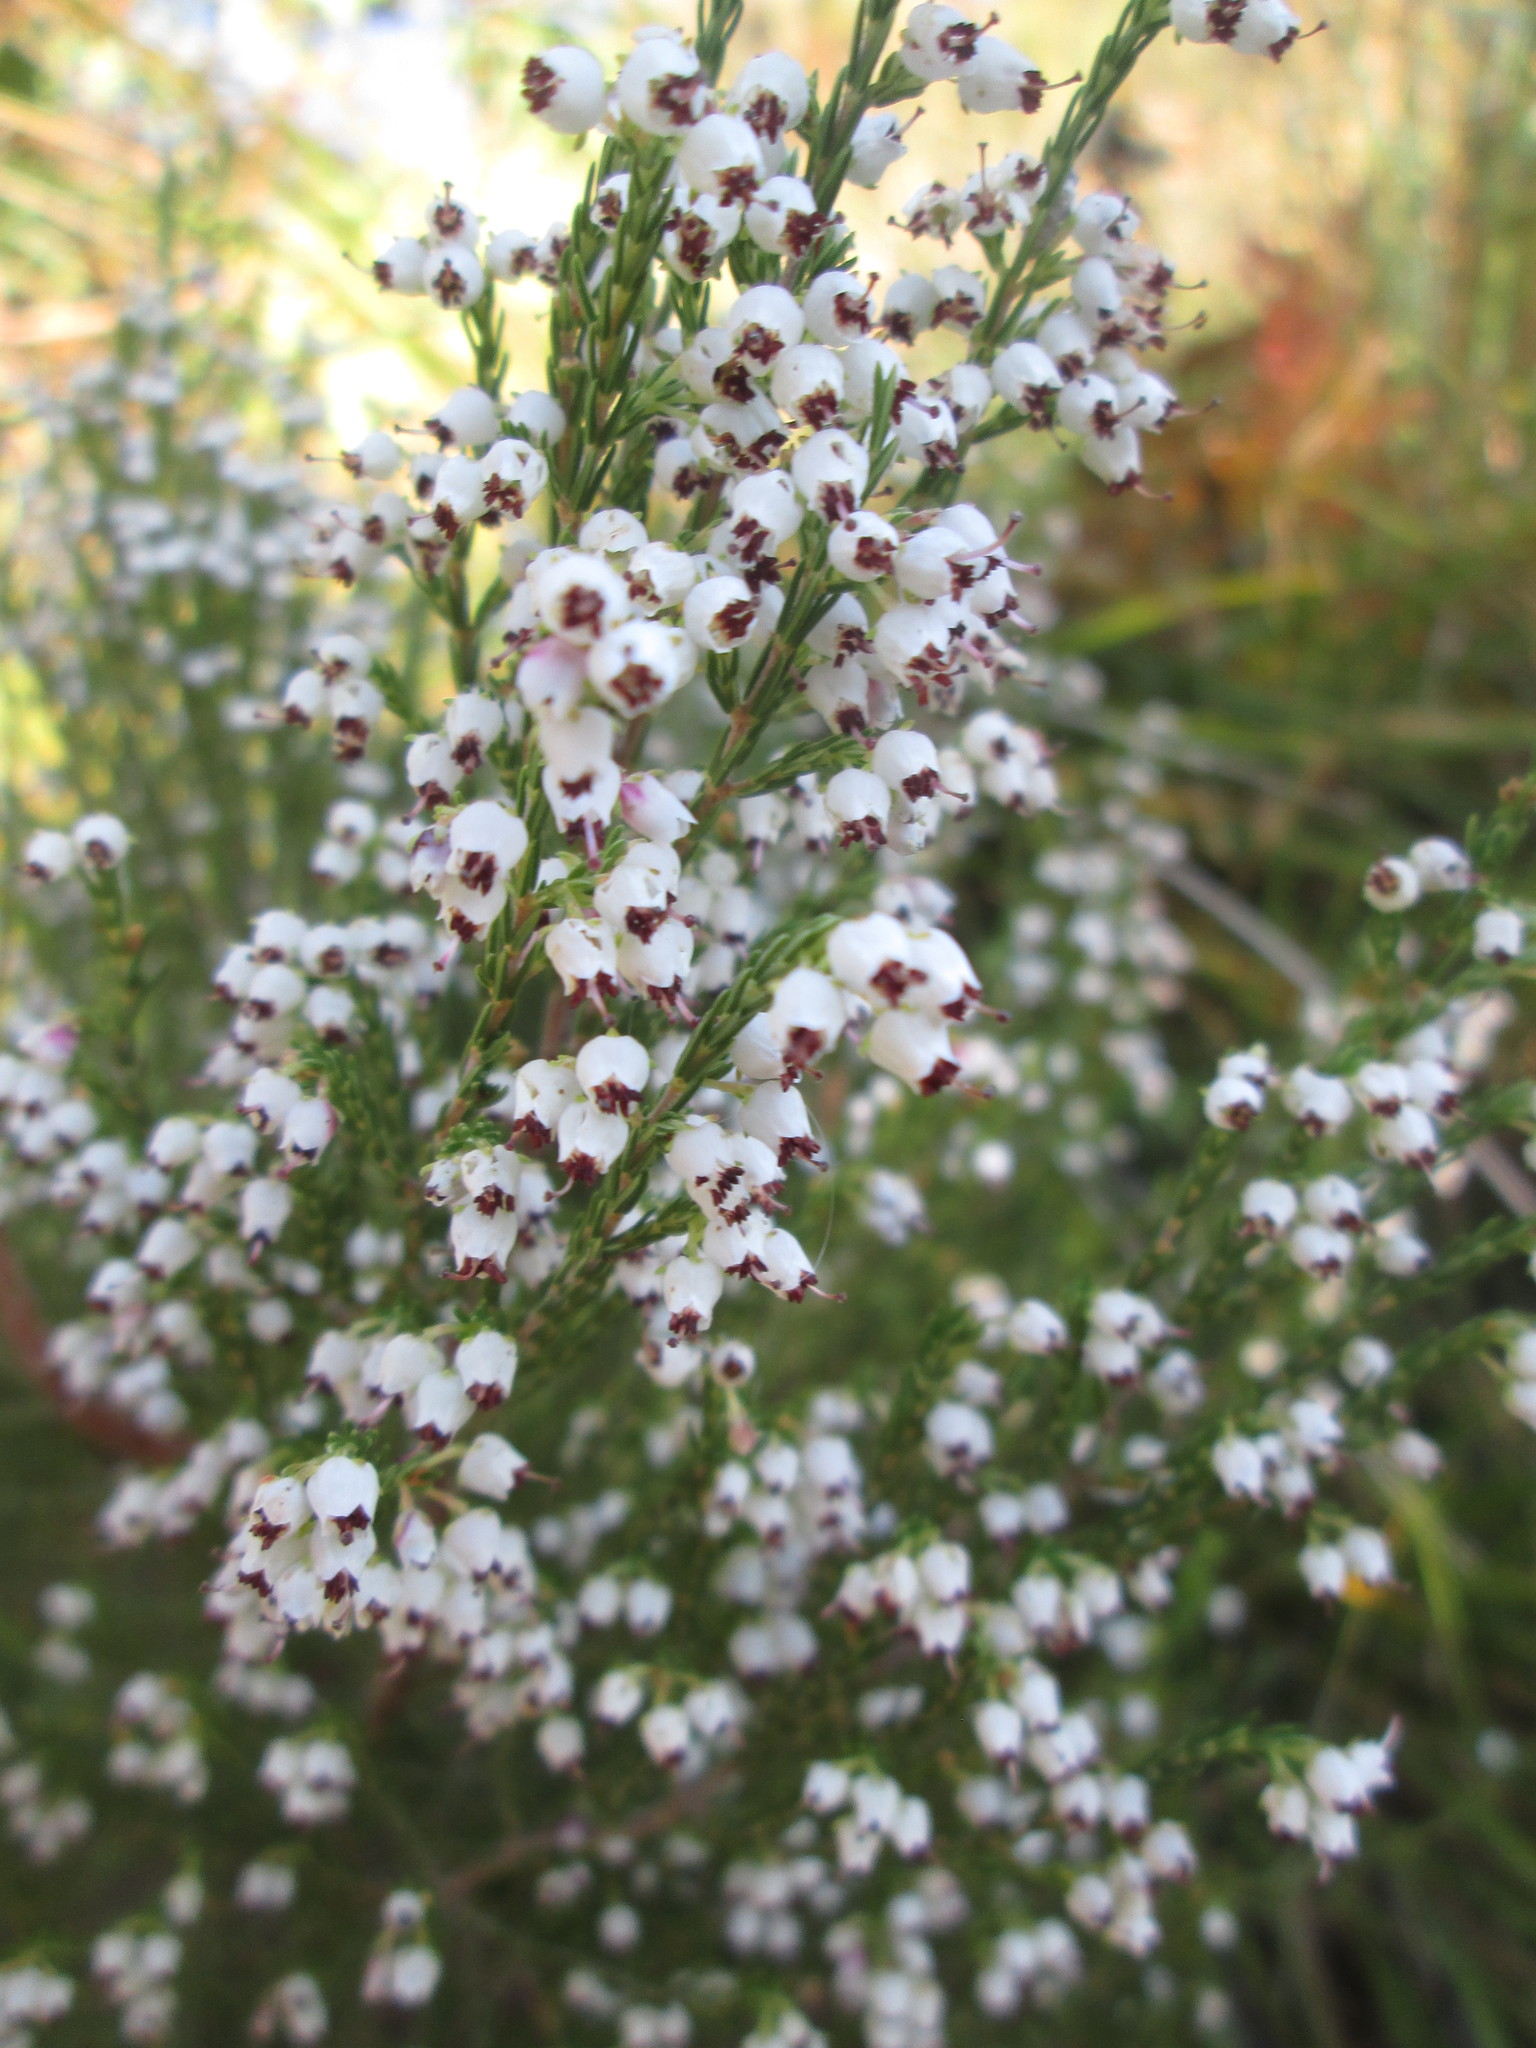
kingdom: Plantae
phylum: Tracheophyta
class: Magnoliopsida
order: Ericales
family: Ericaceae
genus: Erica
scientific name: Erica drakensbergensis
